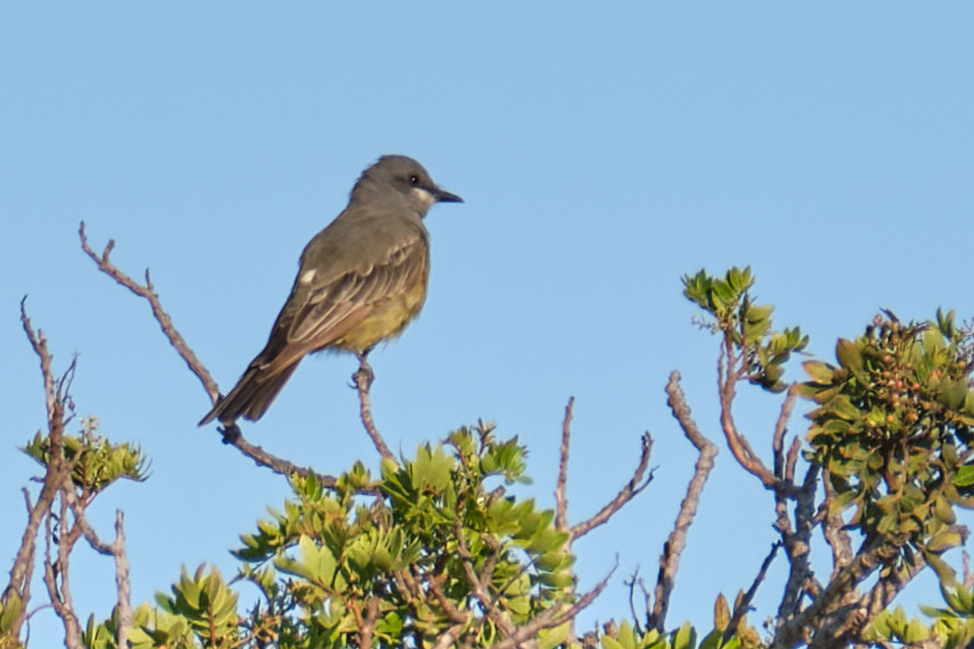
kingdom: Animalia
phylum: Chordata
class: Aves
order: Passeriformes
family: Tyrannidae
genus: Tyrannus
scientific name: Tyrannus vociferans
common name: Cassin's kingbird
